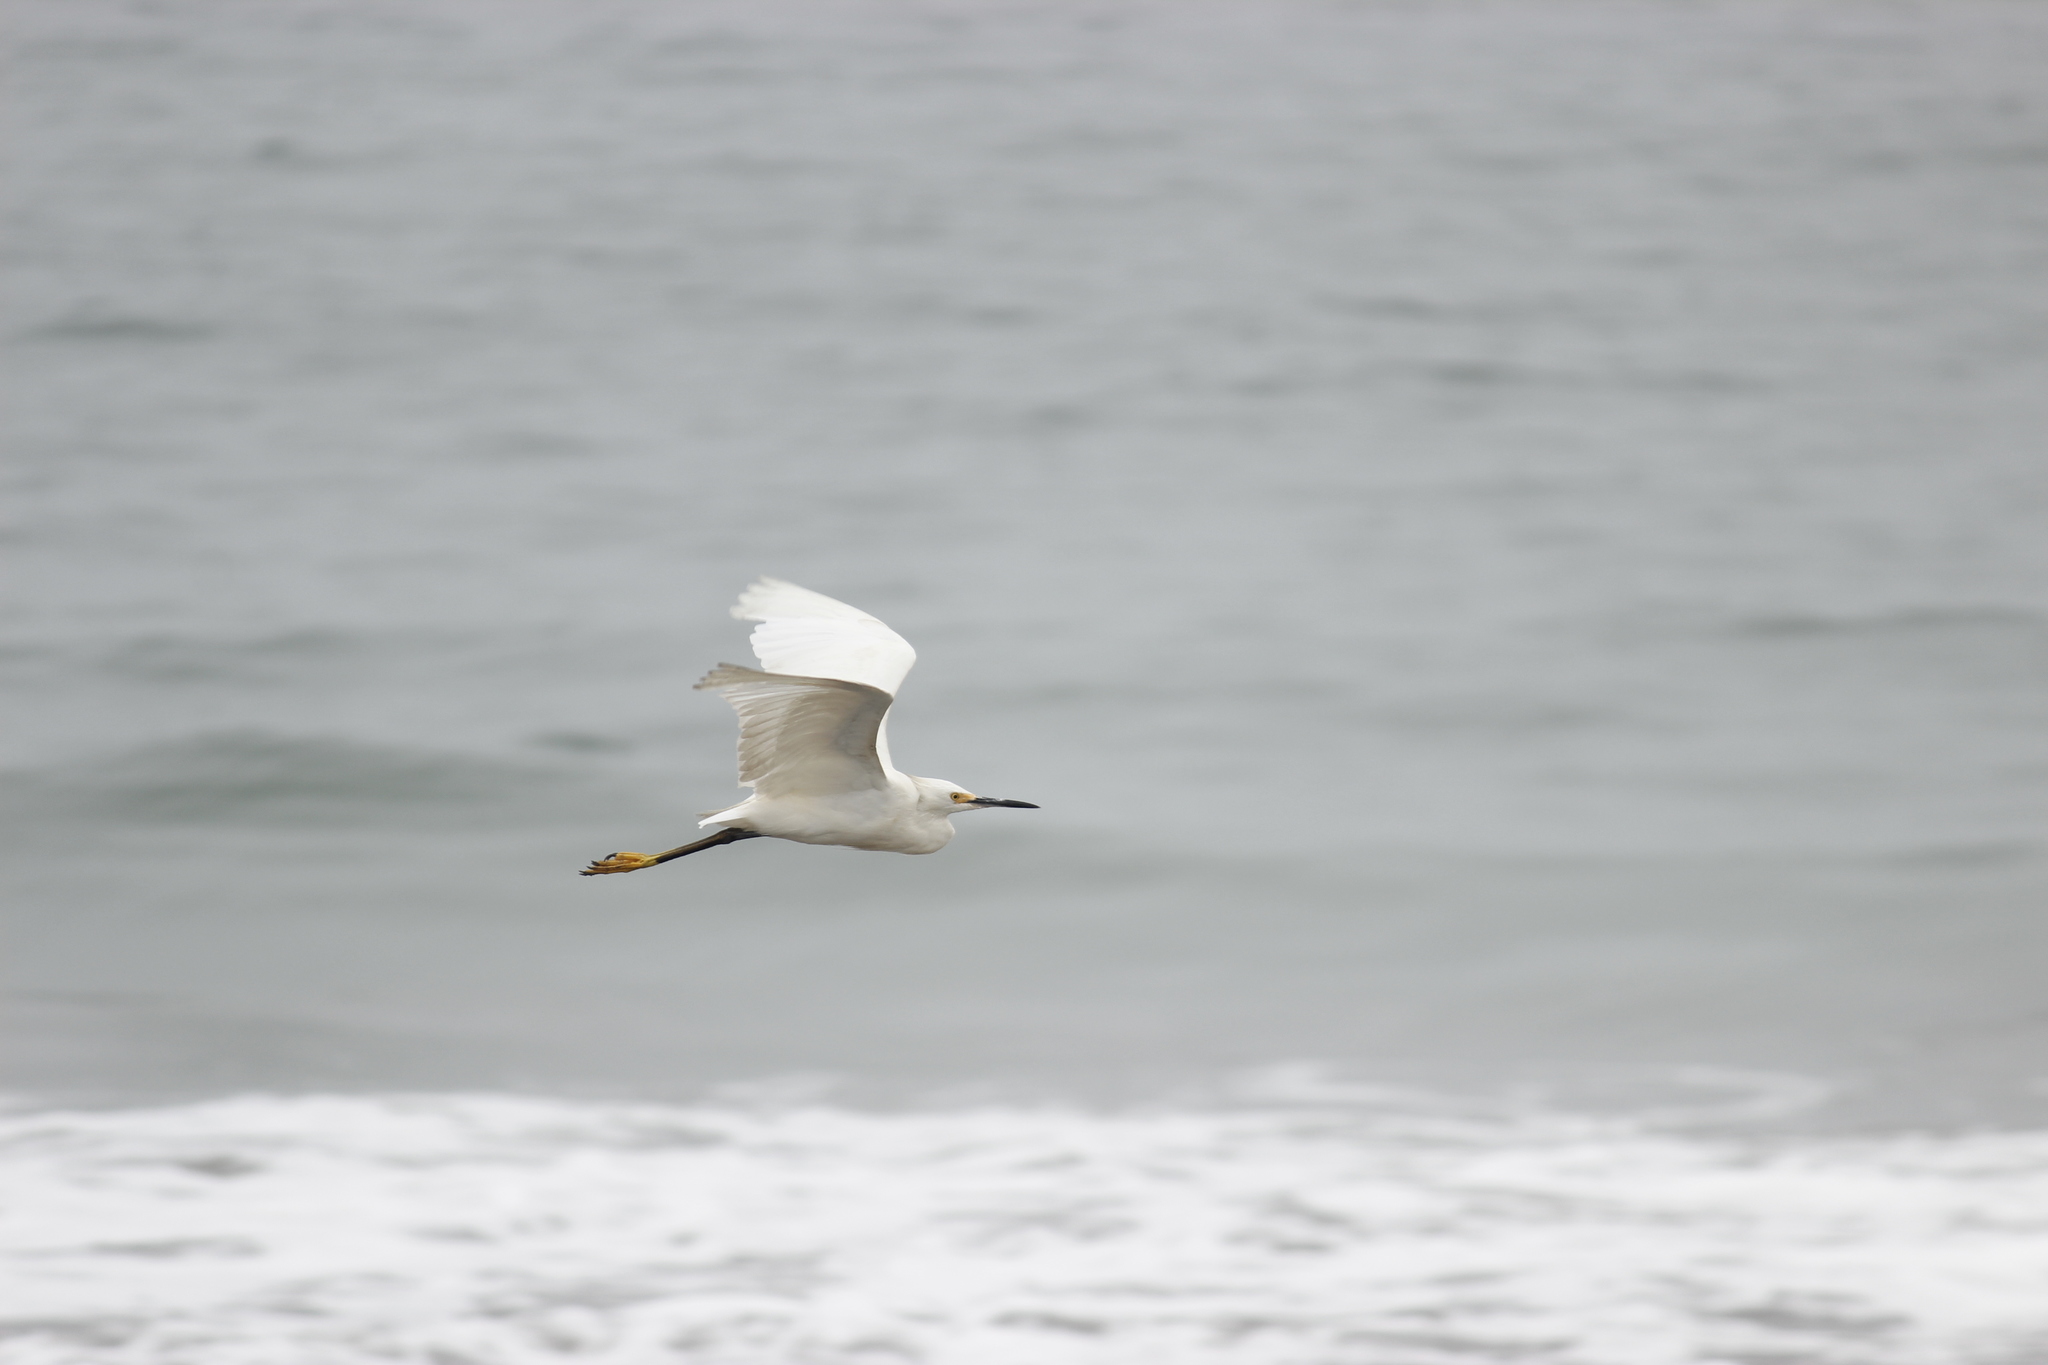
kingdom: Animalia
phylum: Chordata
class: Aves
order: Pelecaniformes
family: Ardeidae
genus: Egretta
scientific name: Egretta thula
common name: Snowy egret
